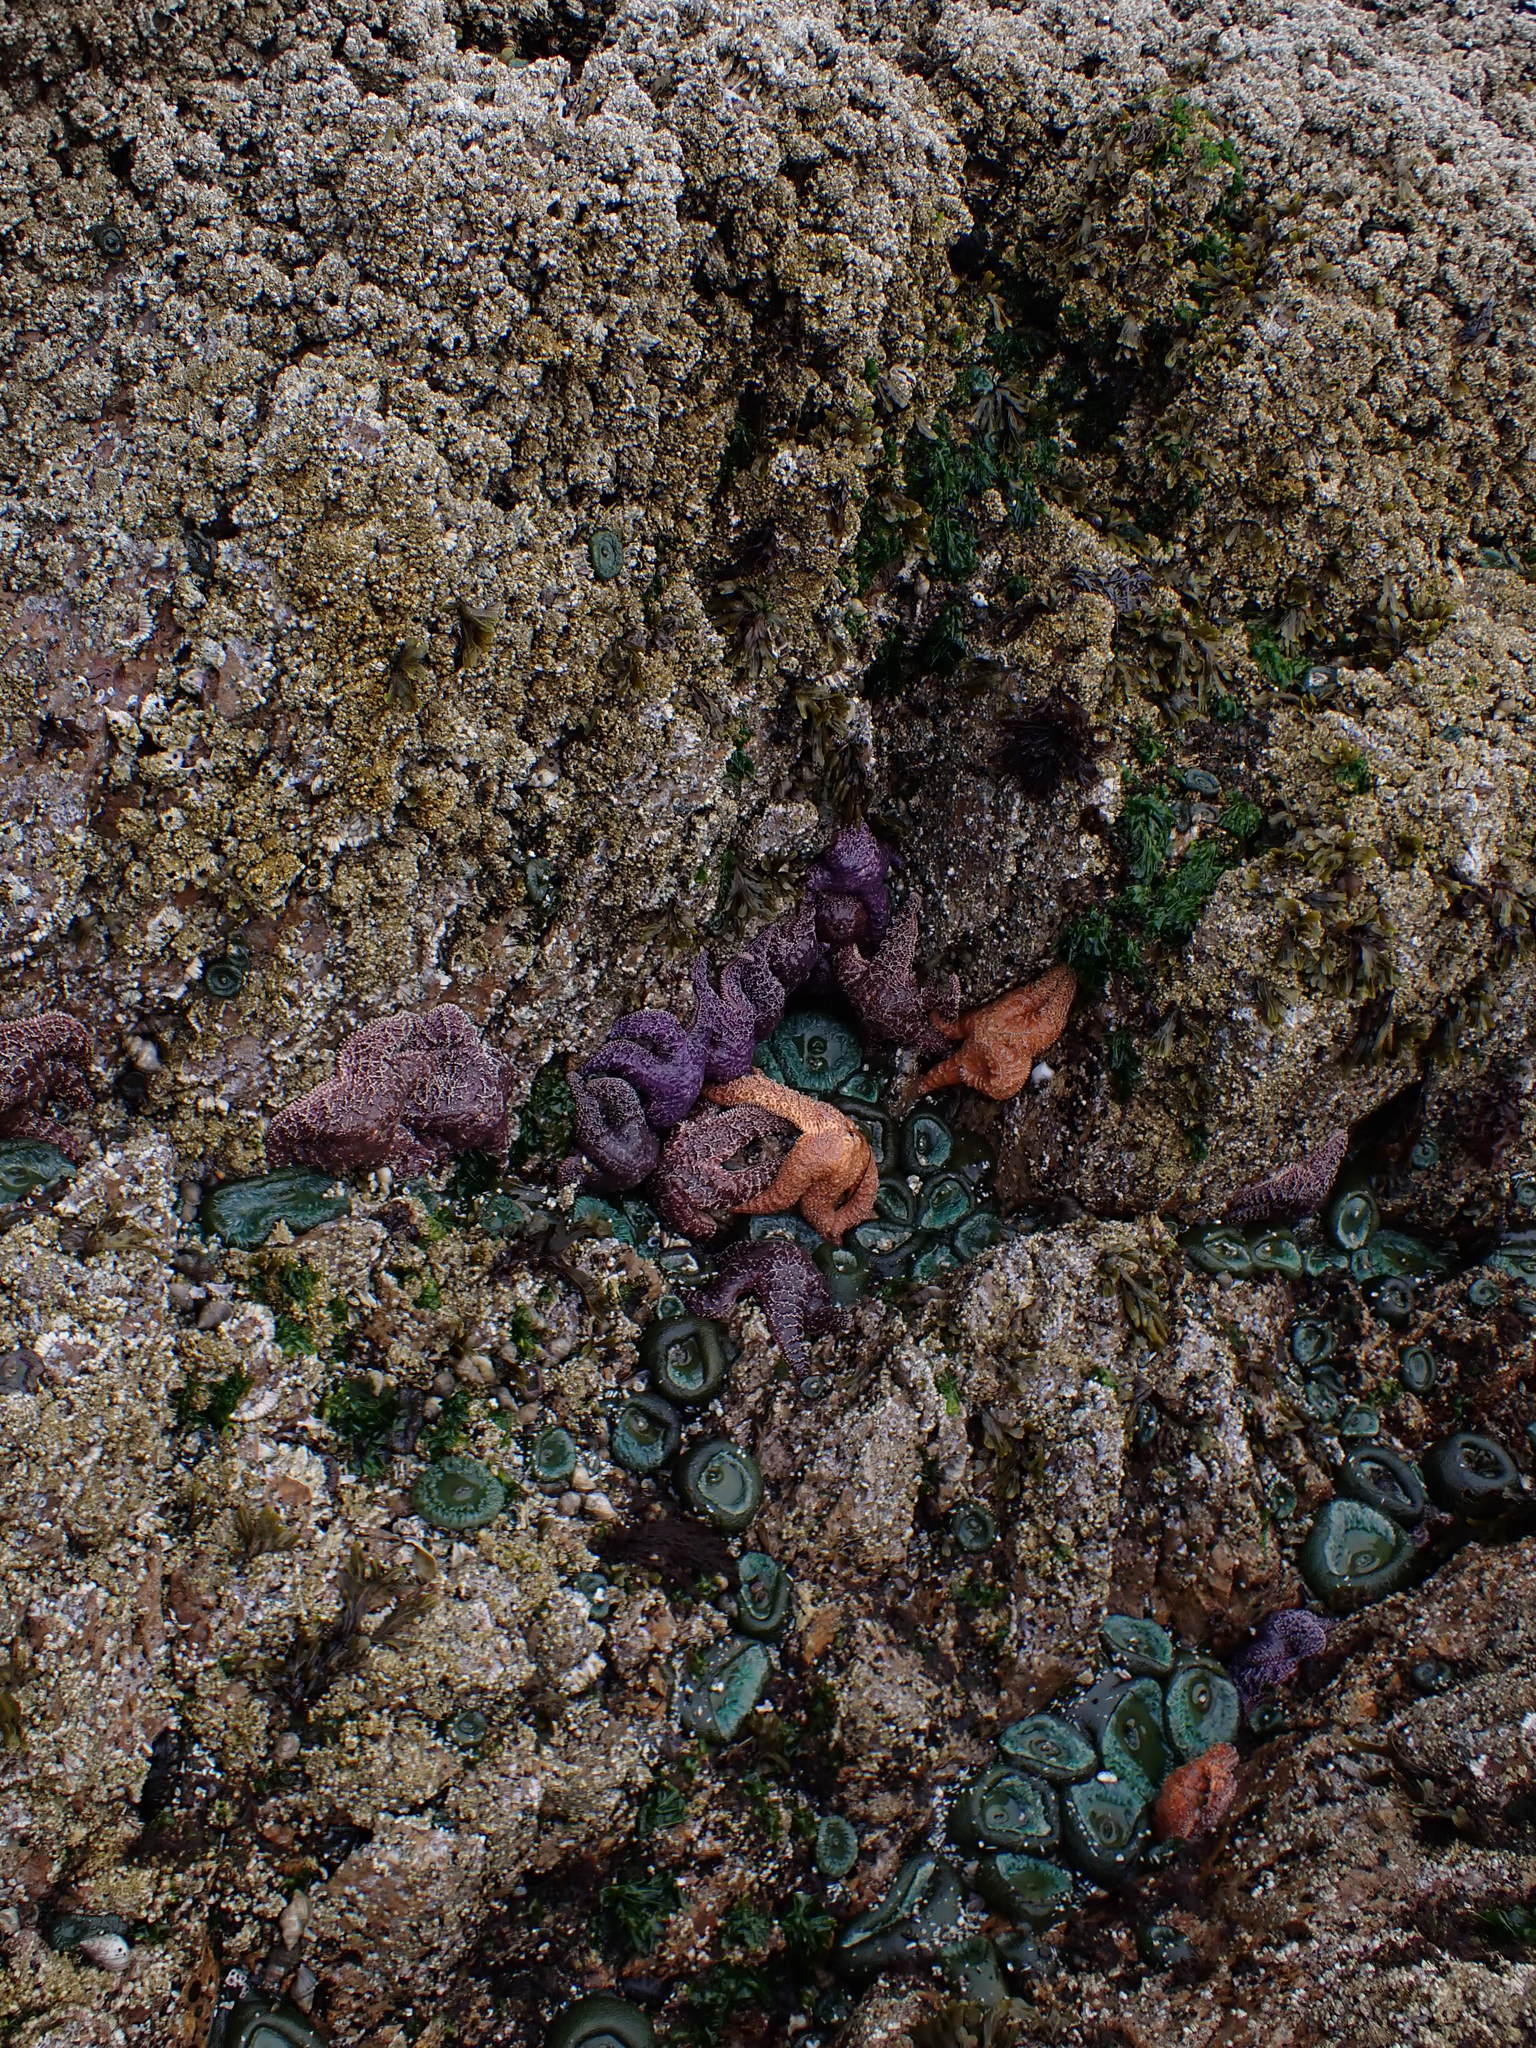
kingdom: Animalia
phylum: Echinodermata
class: Asteroidea
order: Forcipulatida
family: Asteriidae
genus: Pisaster
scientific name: Pisaster ochraceus
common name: Ochre stars
